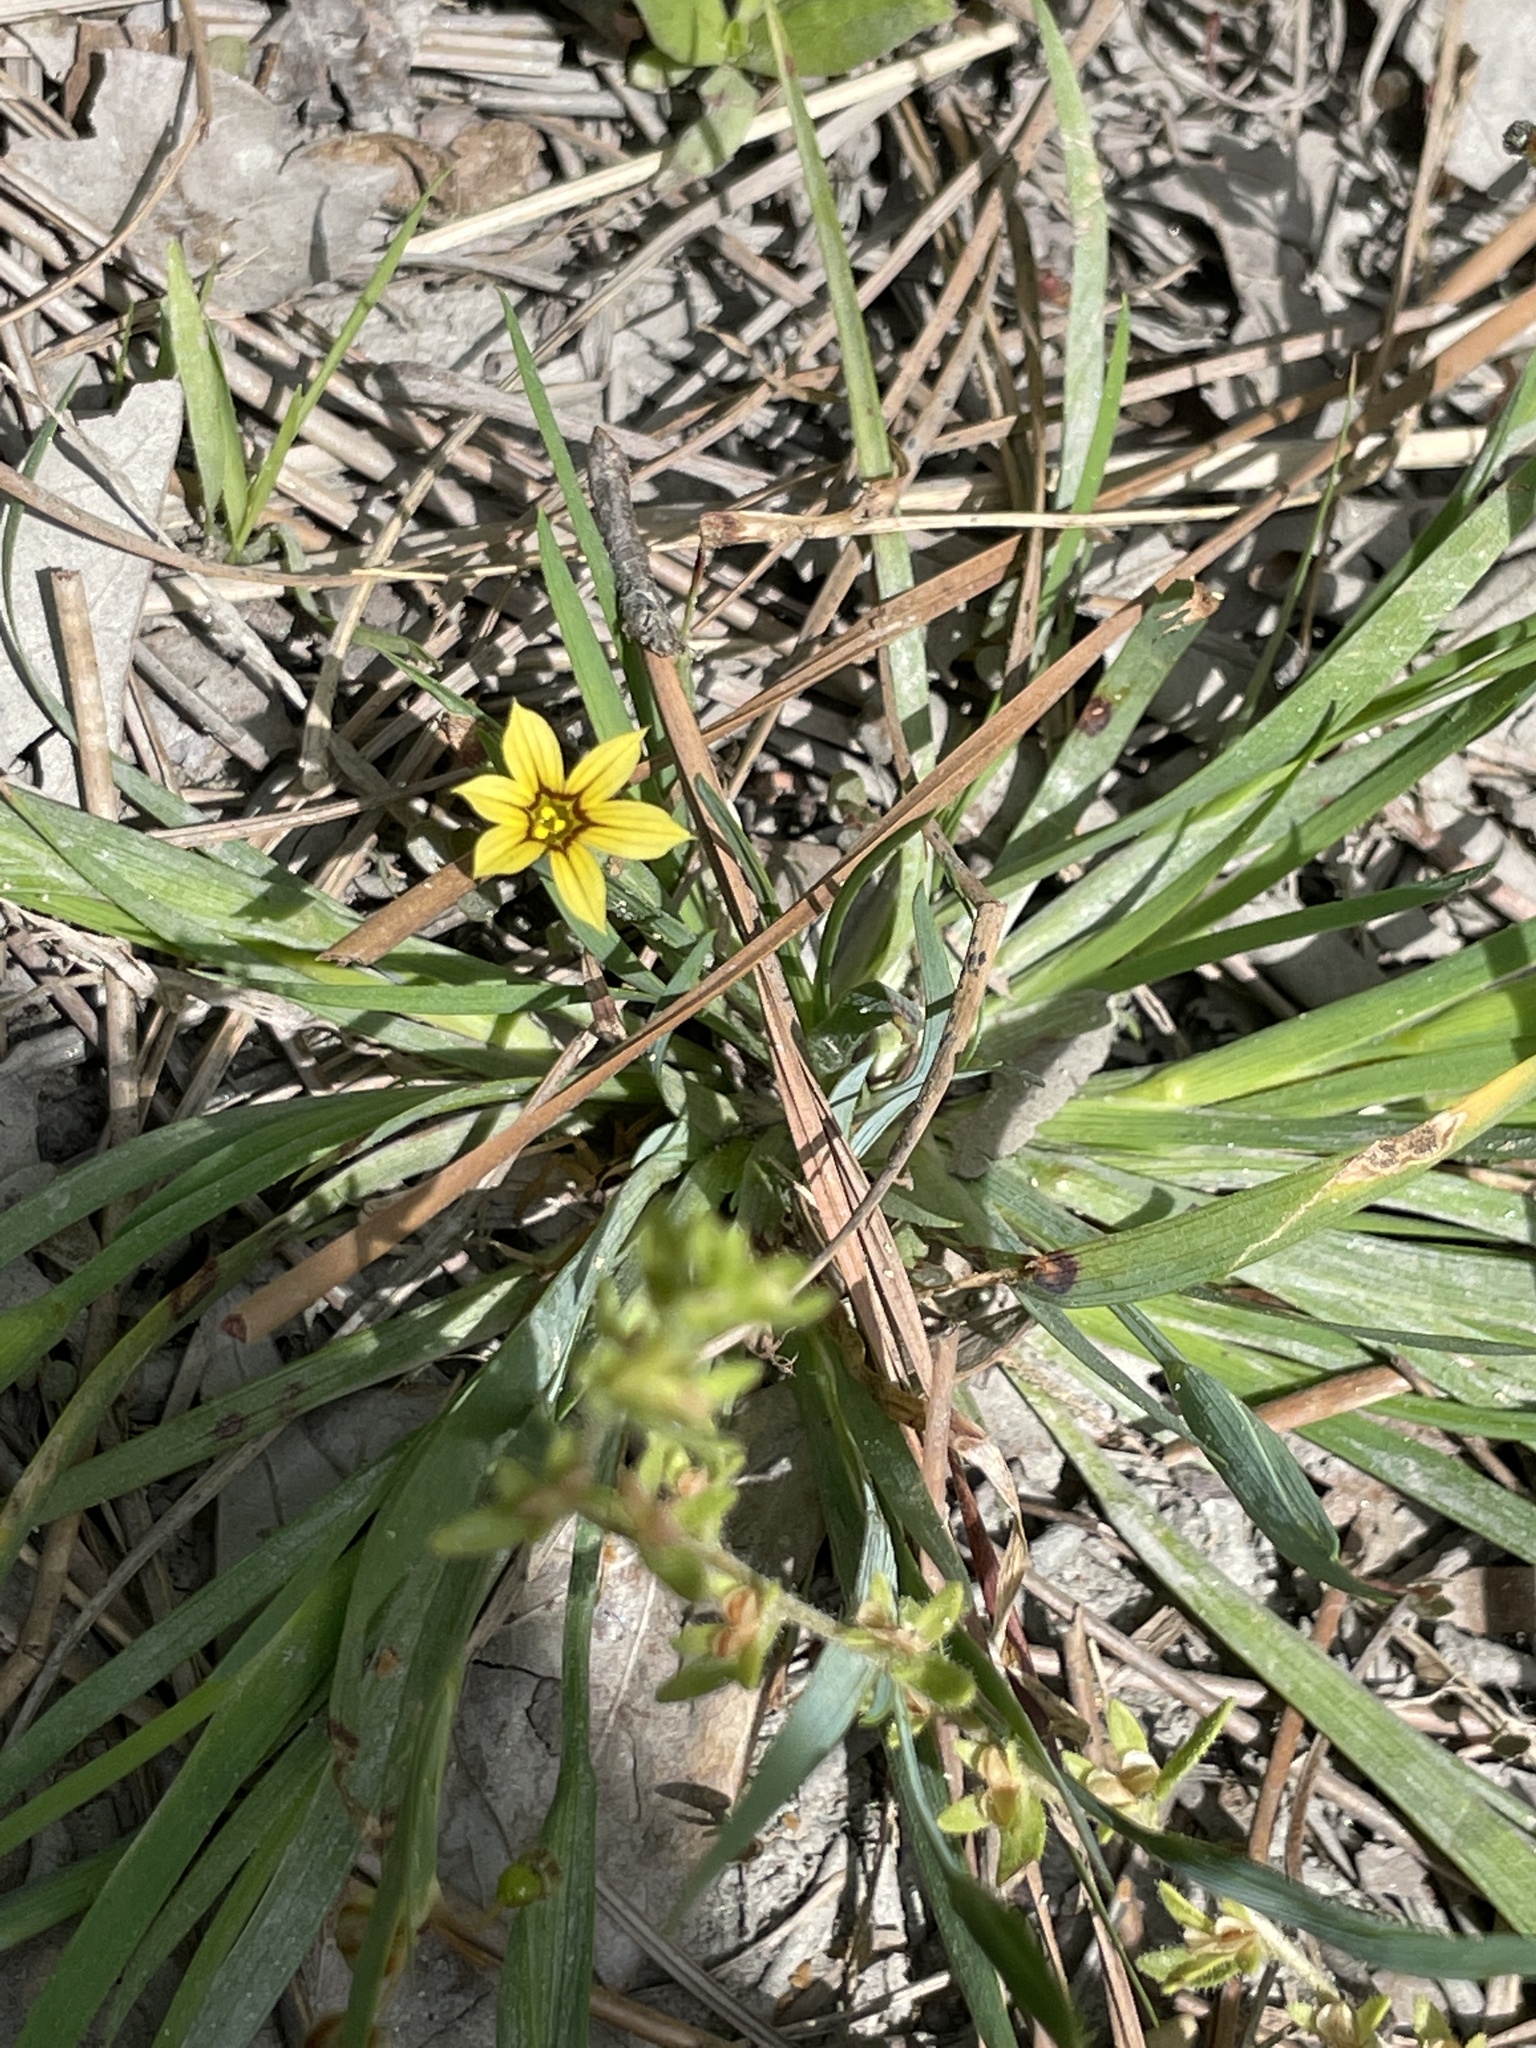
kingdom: Plantae
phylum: Tracheophyta
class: Liliopsida
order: Asparagales
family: Iridaceae
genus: Sisyrinchium
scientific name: Sisyrinchium micranthum
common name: Bermuda pigroot
